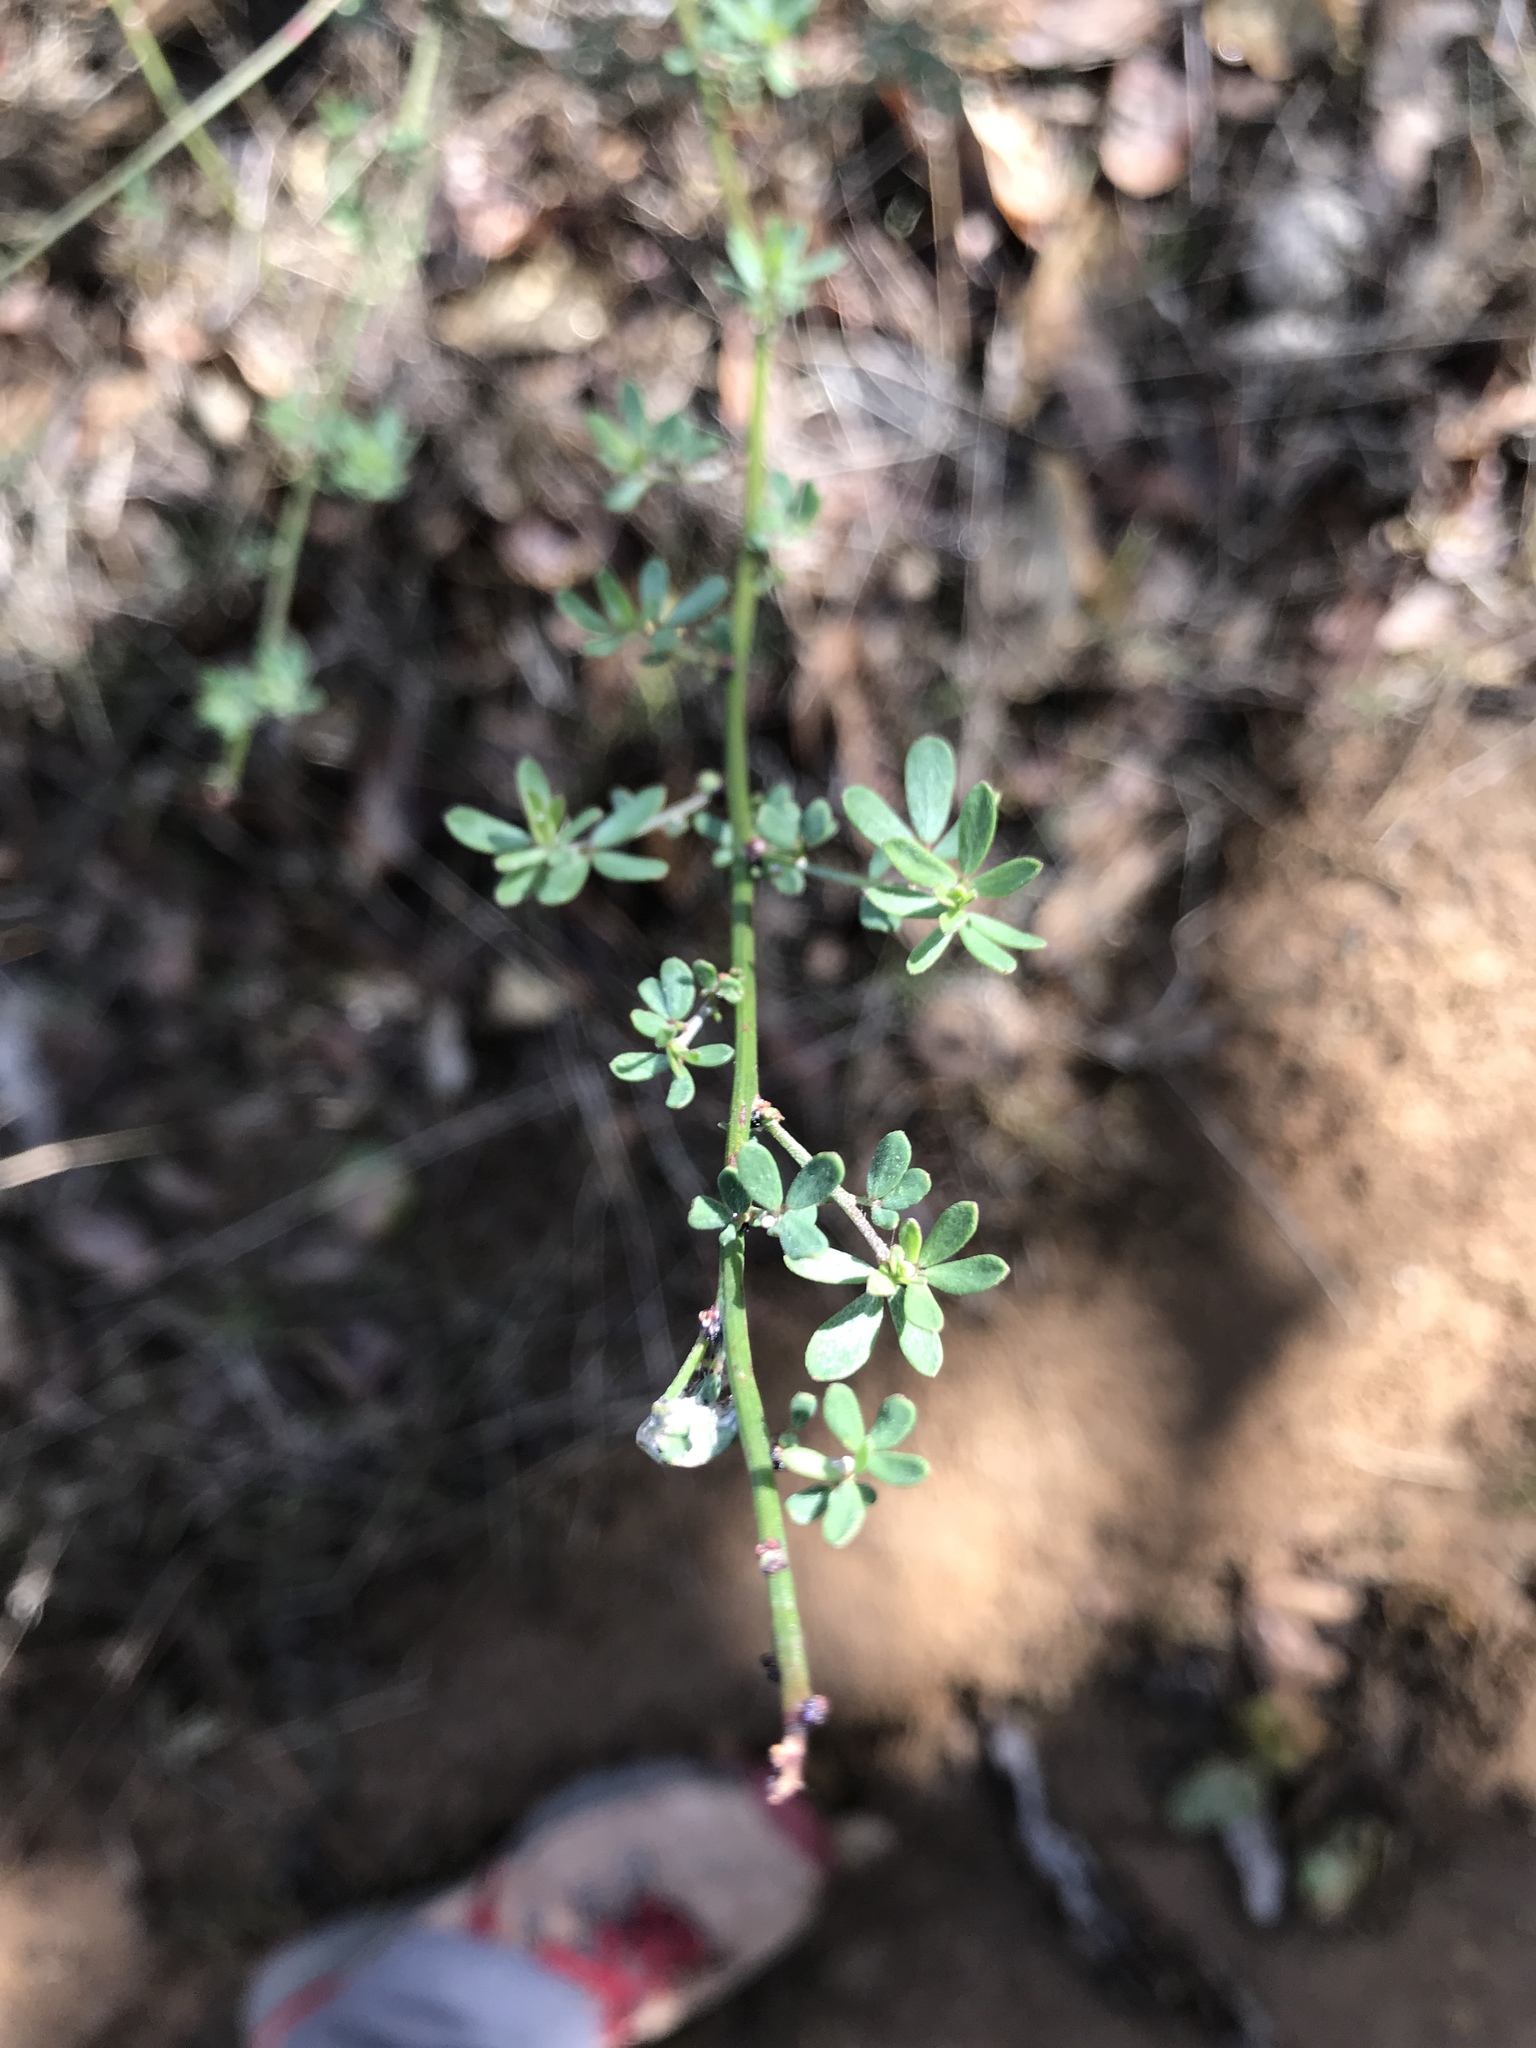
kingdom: Plantae
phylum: Tracheophyta
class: Magnoliopsida
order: Fabales
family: Fabaceae
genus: Acmispon
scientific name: Acmispon glaber
